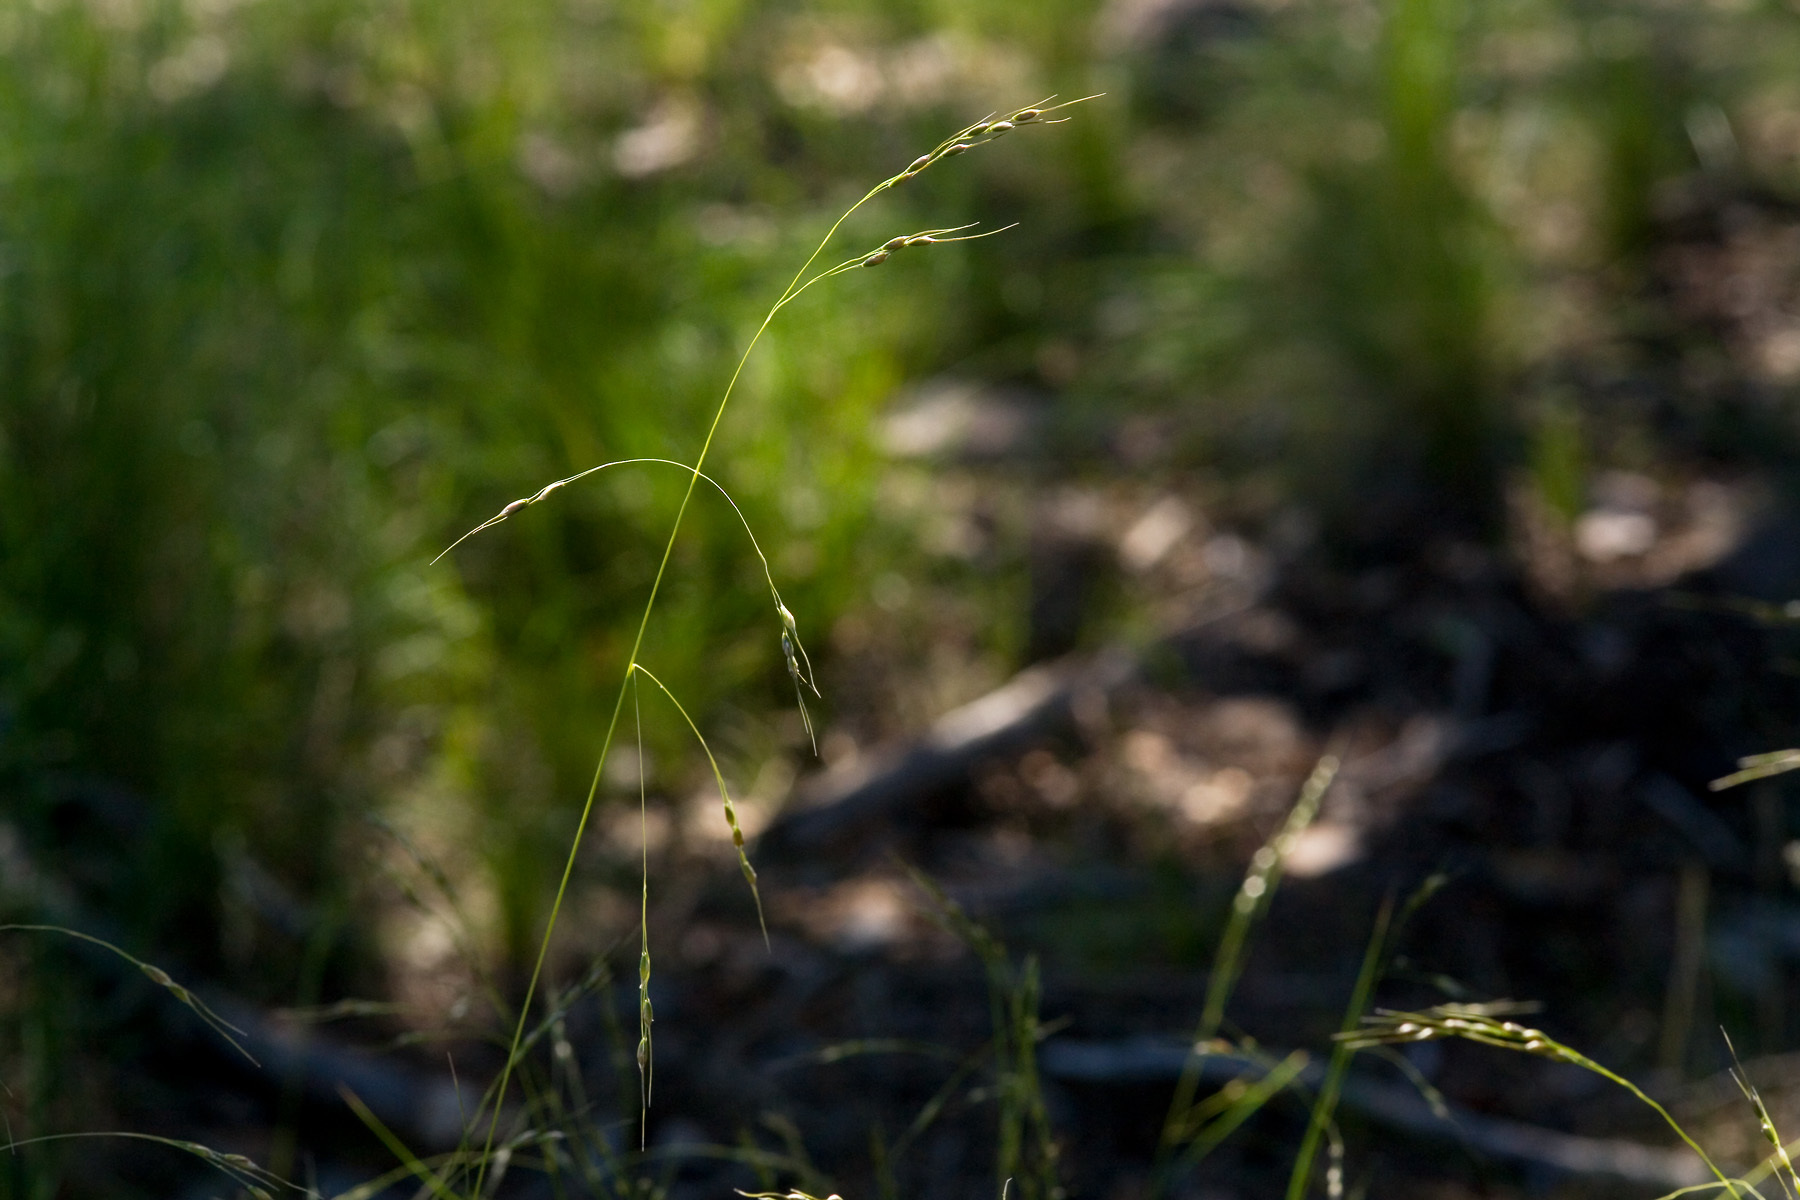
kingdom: Plantae
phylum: Tracheophyta
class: Liliopsida
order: Poales
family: Poaceae
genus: Piptochaetium
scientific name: Piptochaetium fimbriatum
